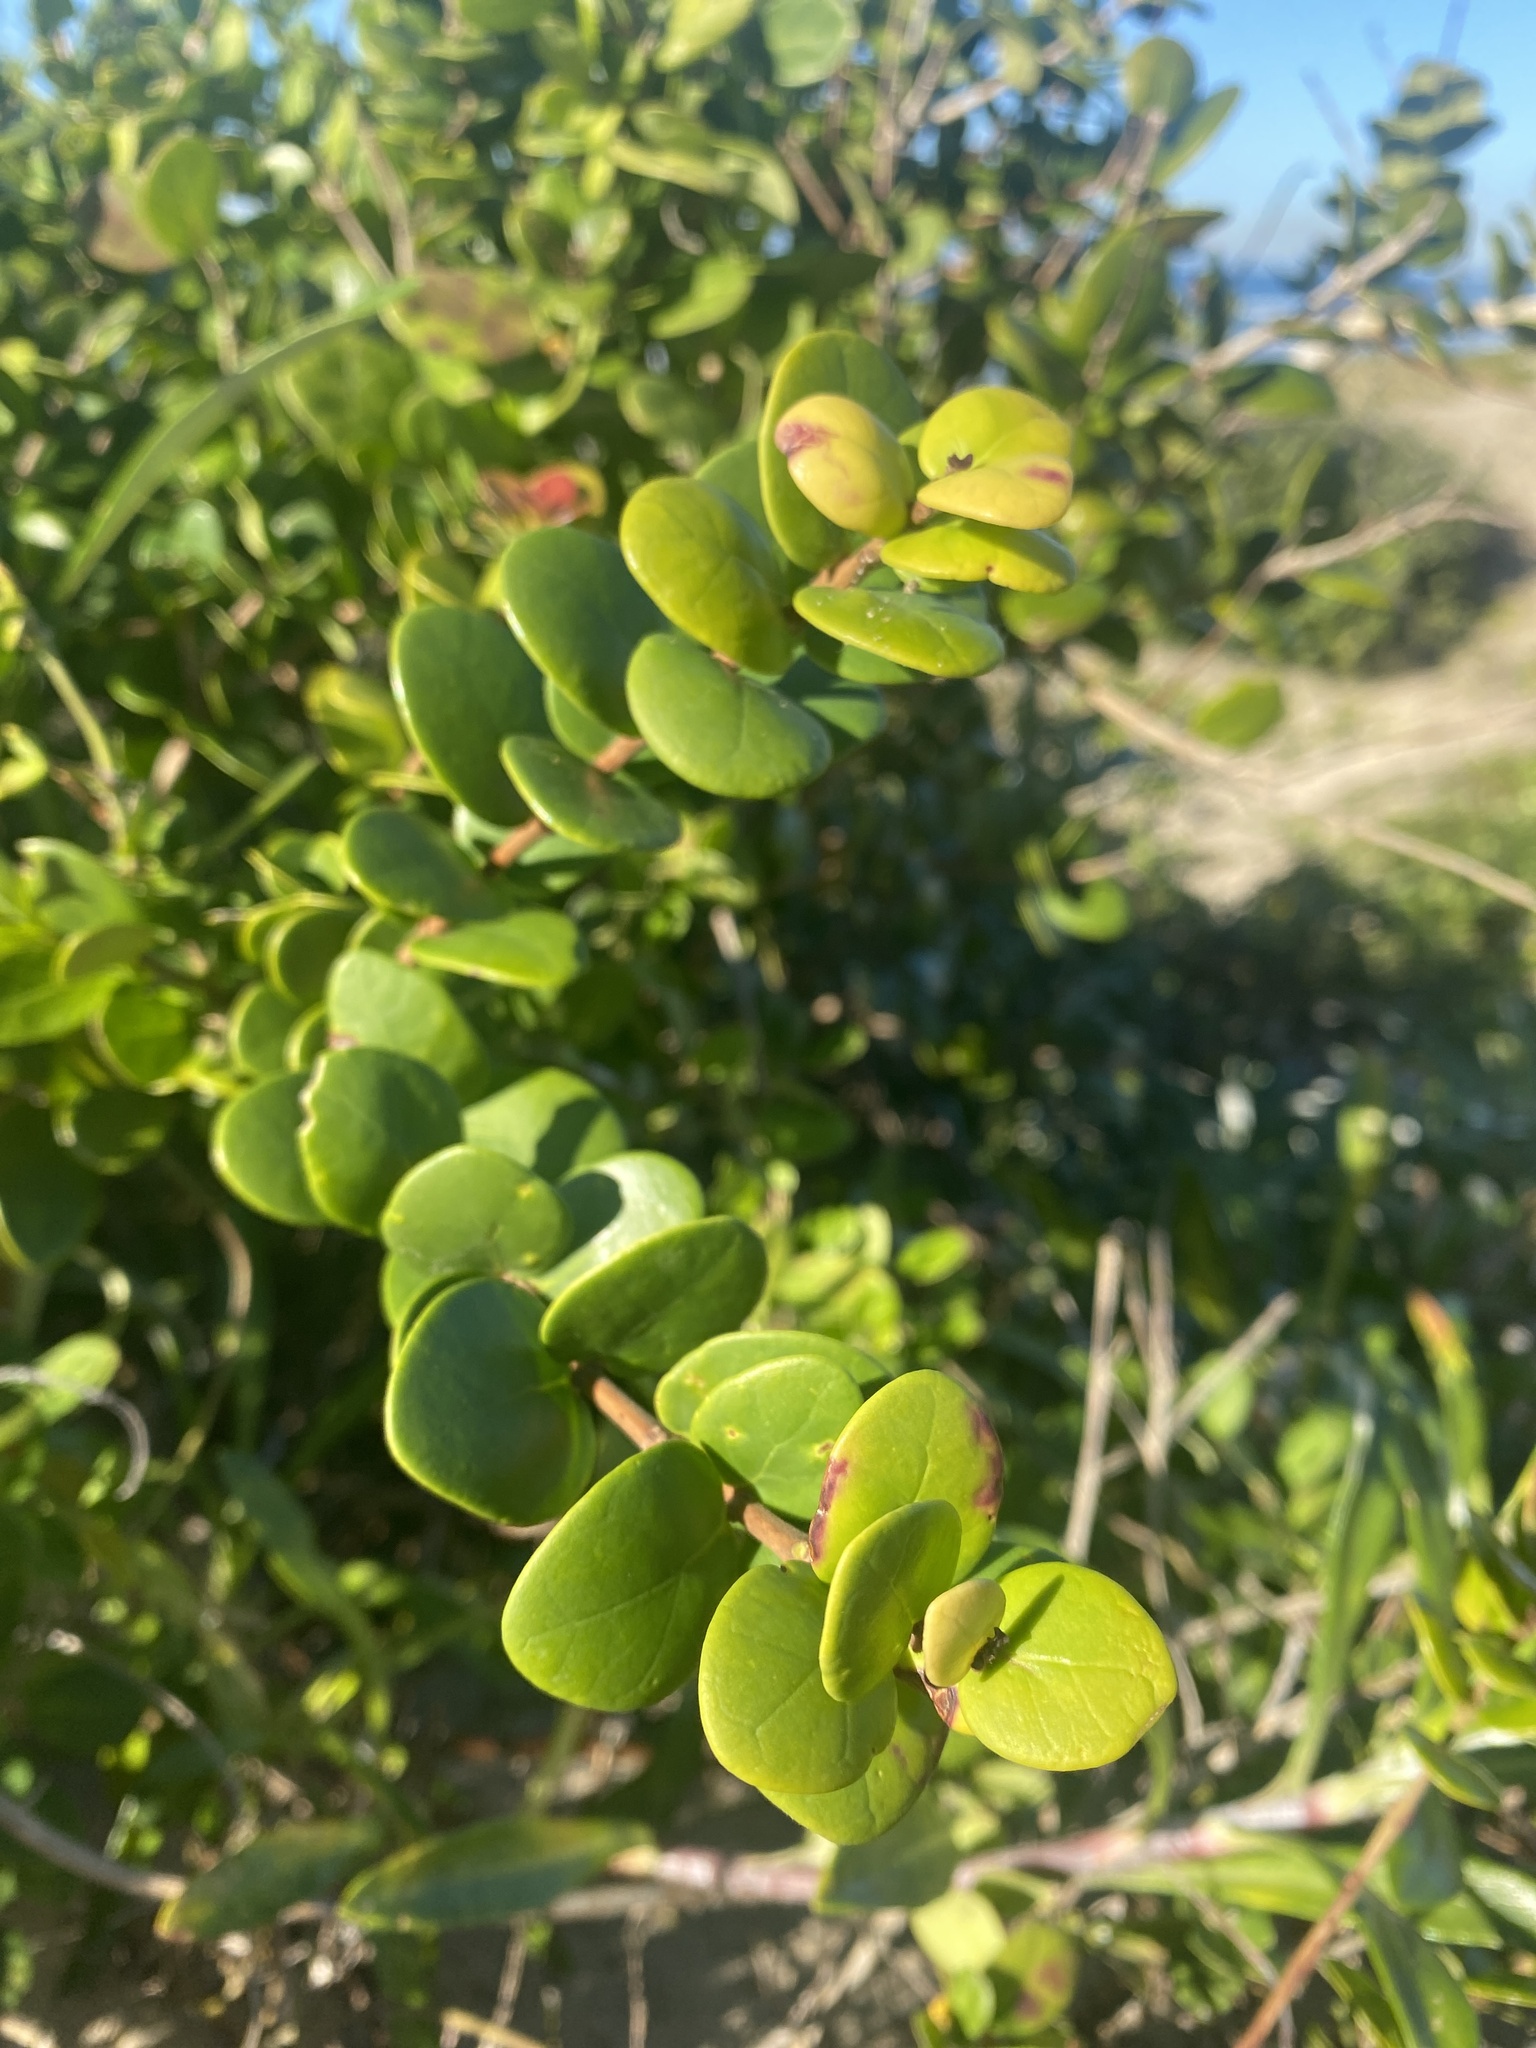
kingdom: Plantae
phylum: Tracheophyta
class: Magnoliopsida
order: Gentianales
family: Apocynaceae
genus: Cynanchum
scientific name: Cynanchum natalitium
